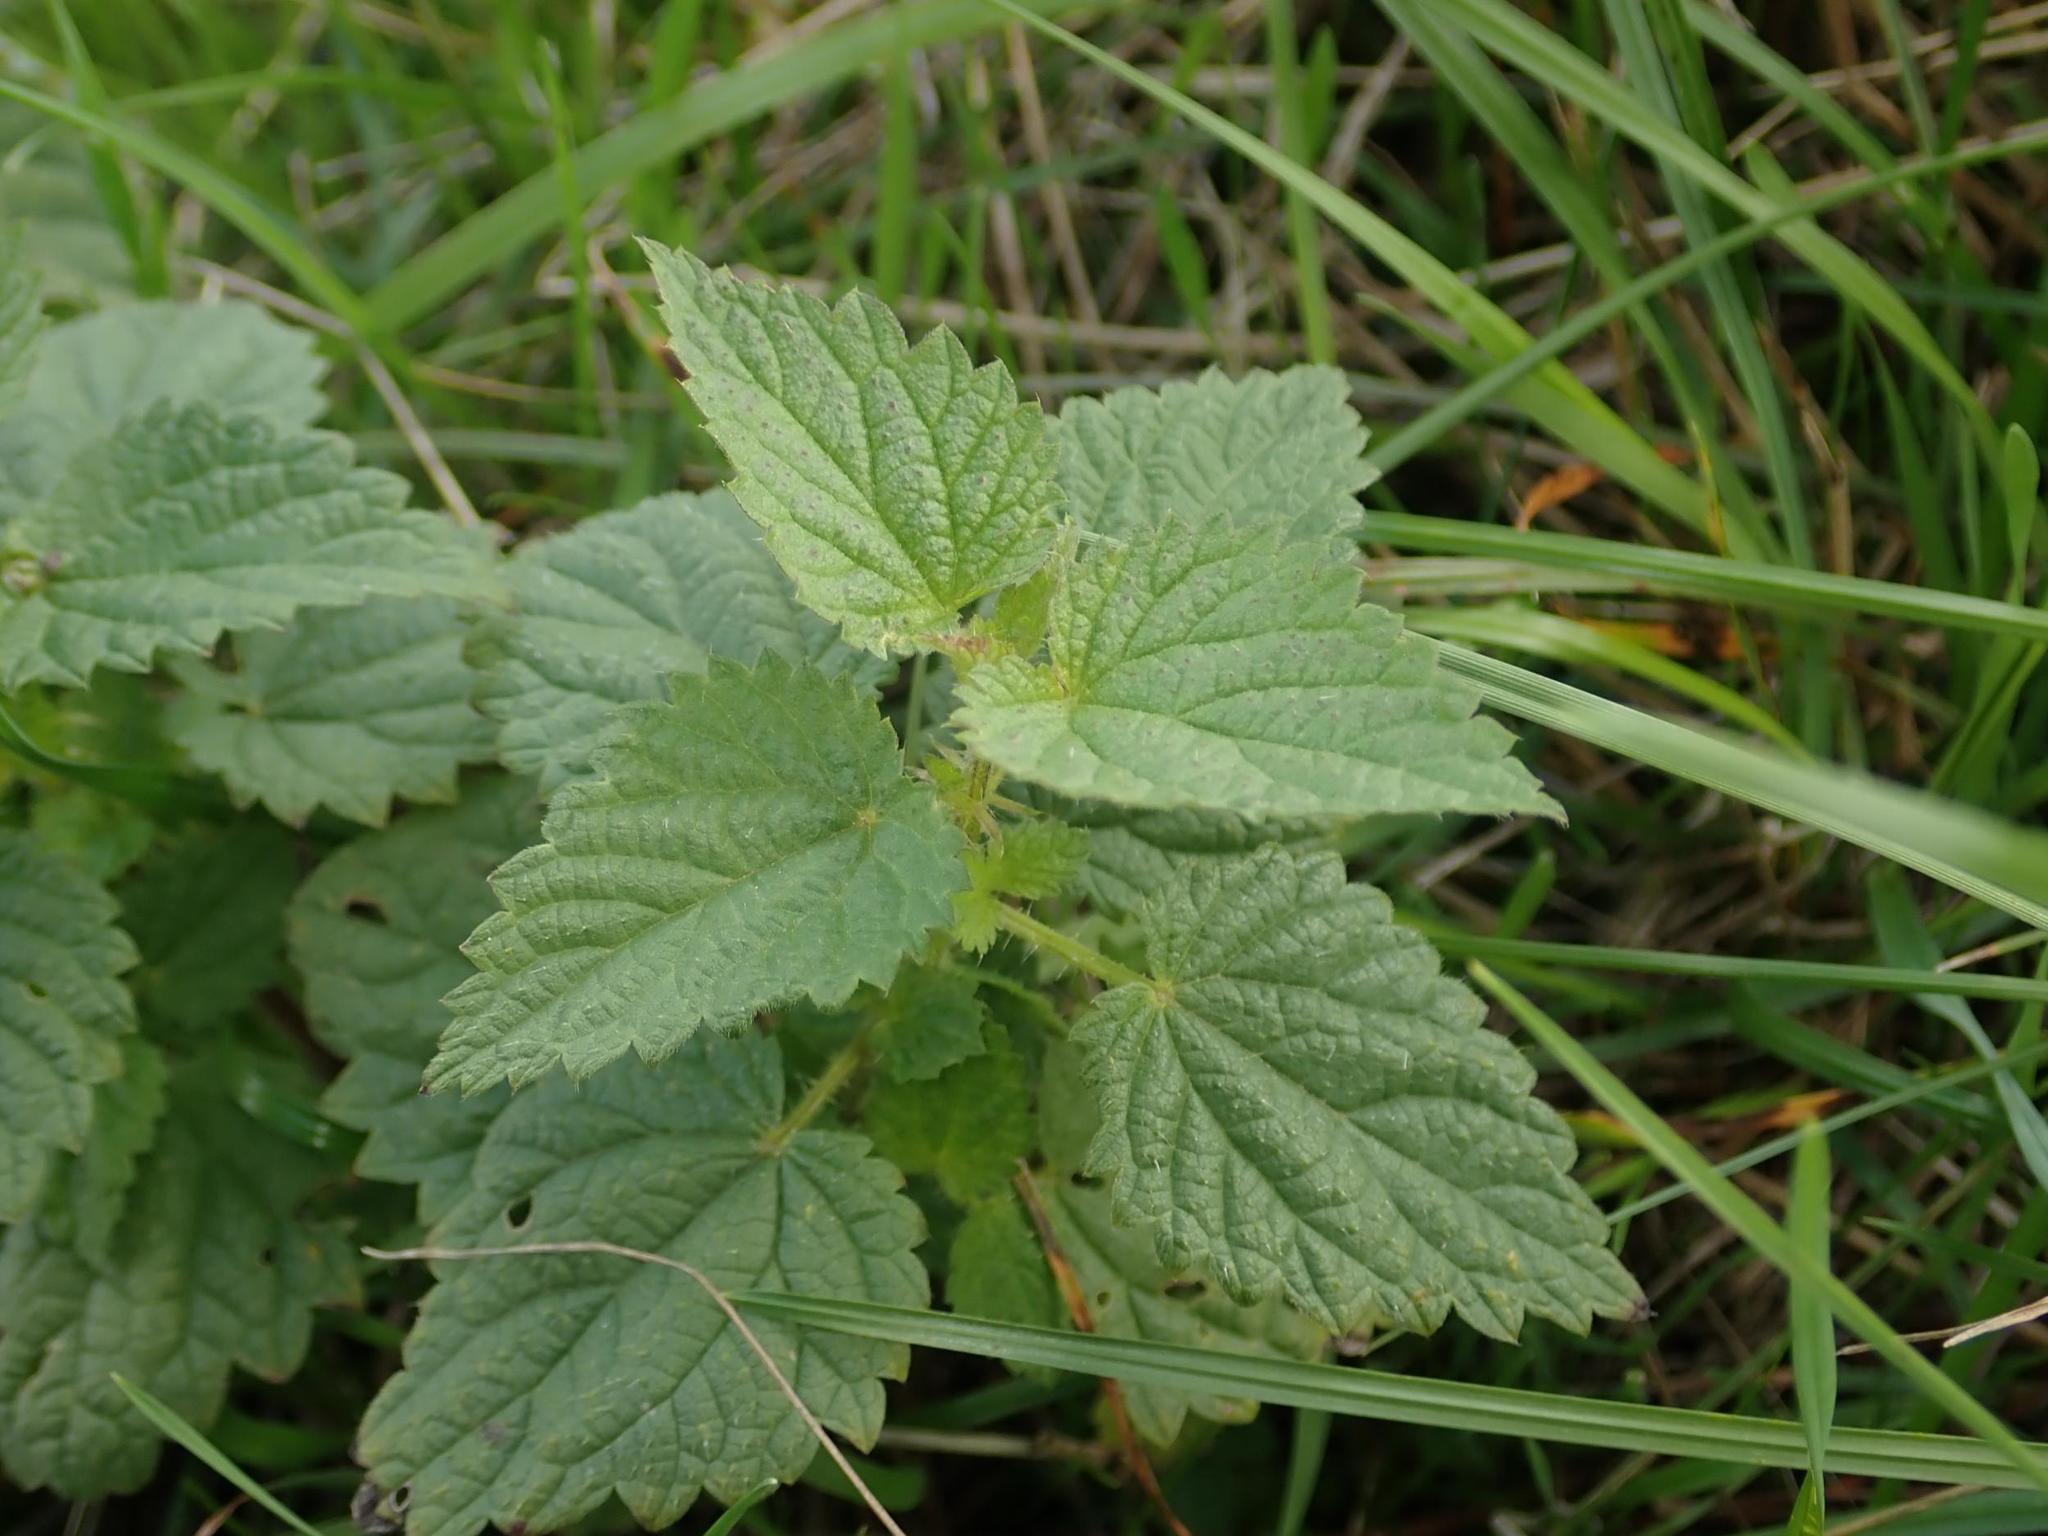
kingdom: Plantae
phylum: Tracheophyta
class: Magnoliopsida
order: Rosales
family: Urticaceae
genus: Urtica
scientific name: Urtica dioica
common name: Common nettle
